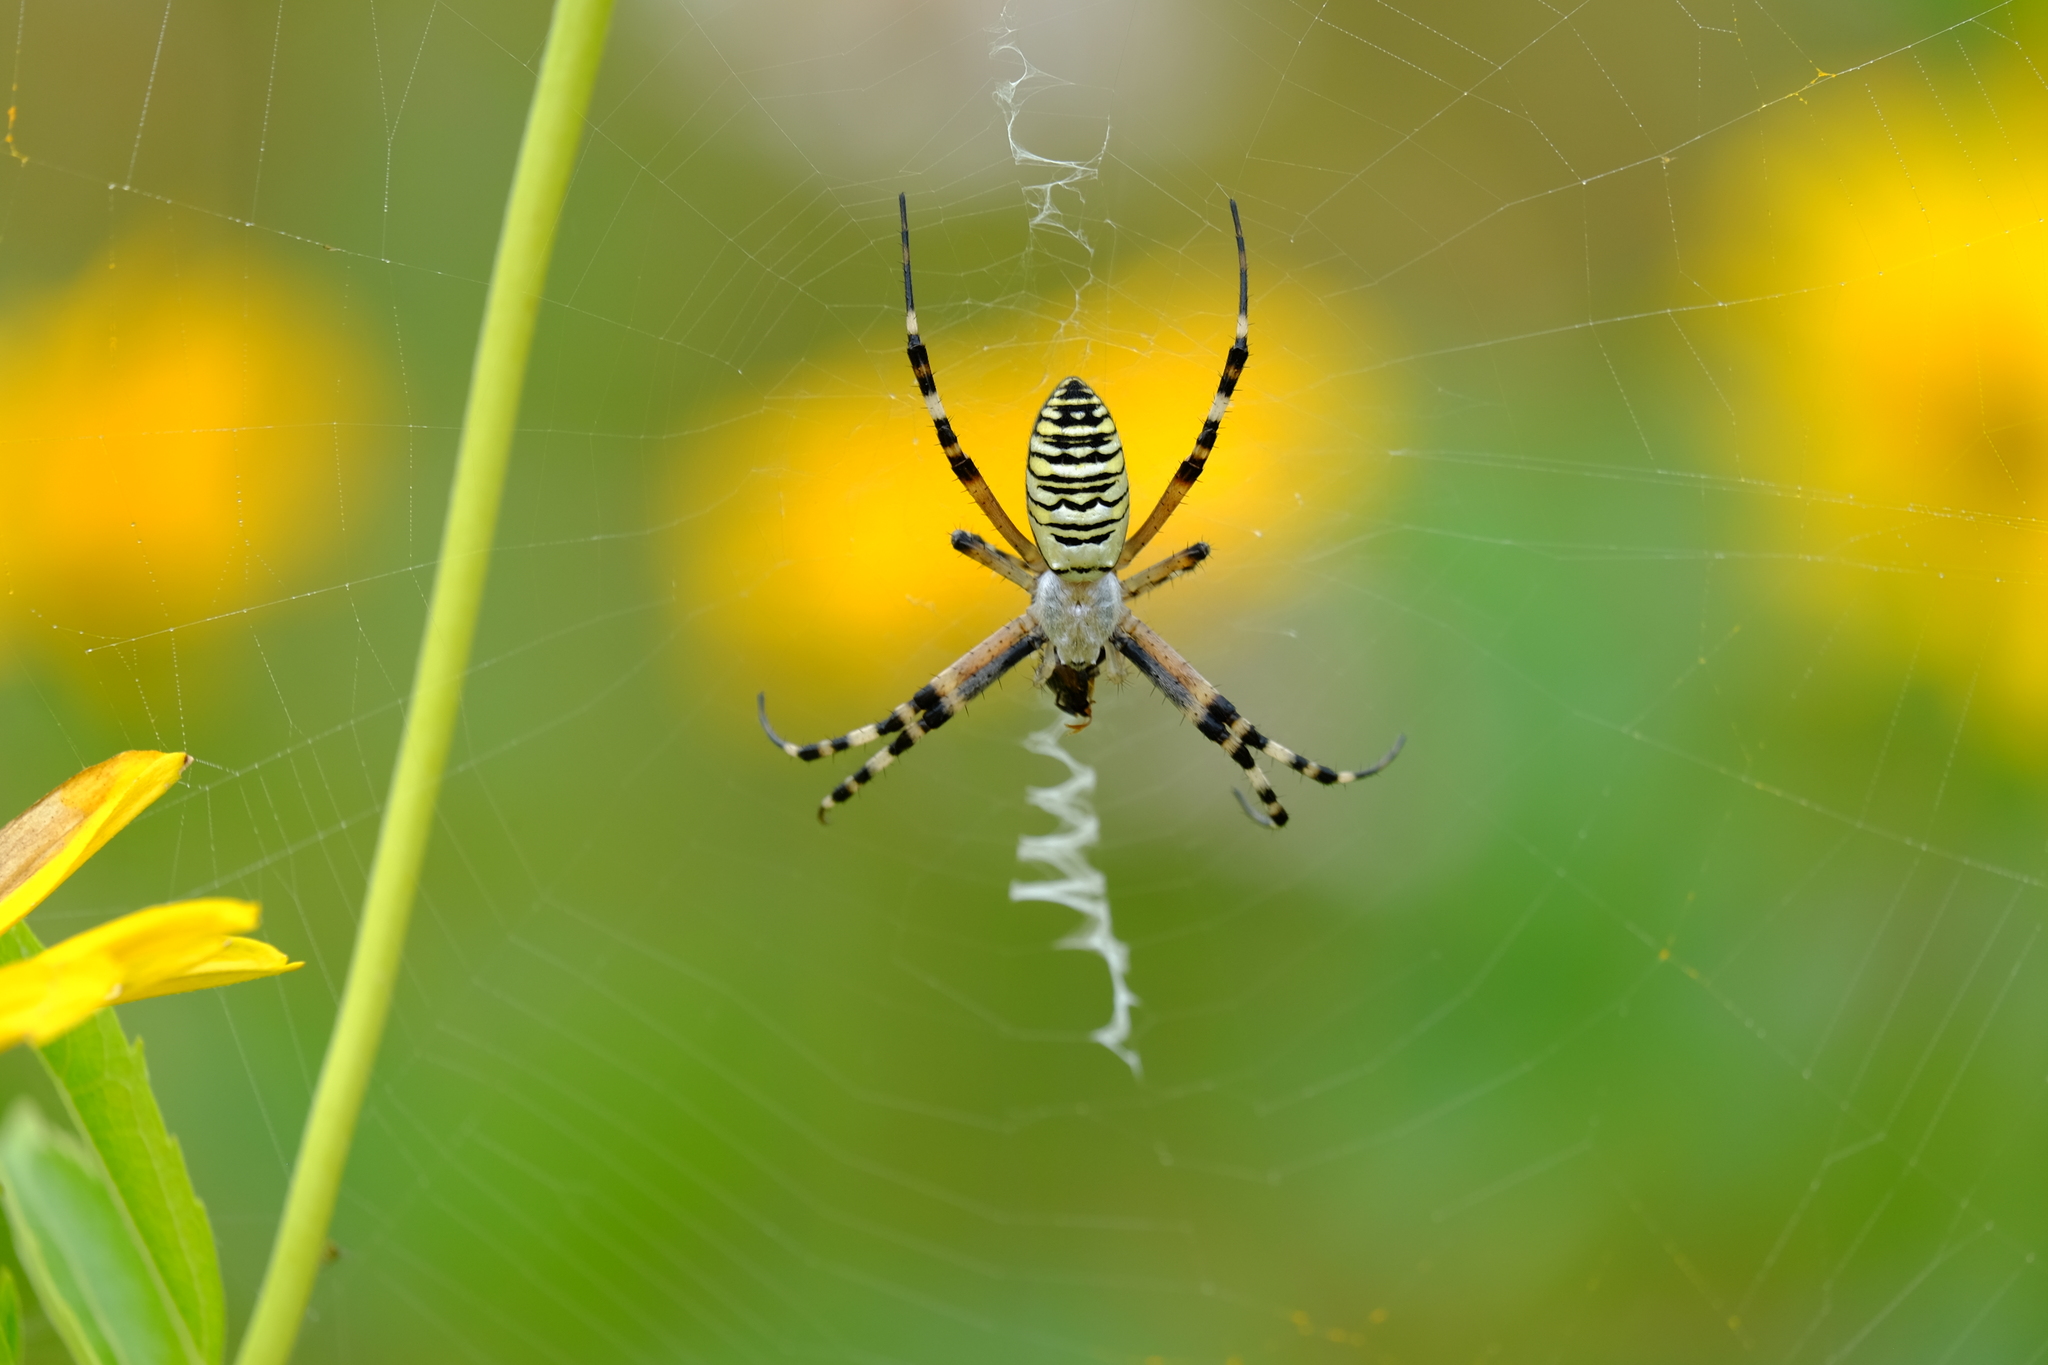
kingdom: Animalia
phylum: Arthropoda
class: Arachnida
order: Araneae
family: Araneidae
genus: Argiope
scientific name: Argiope bruennichi
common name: Wasp spider
